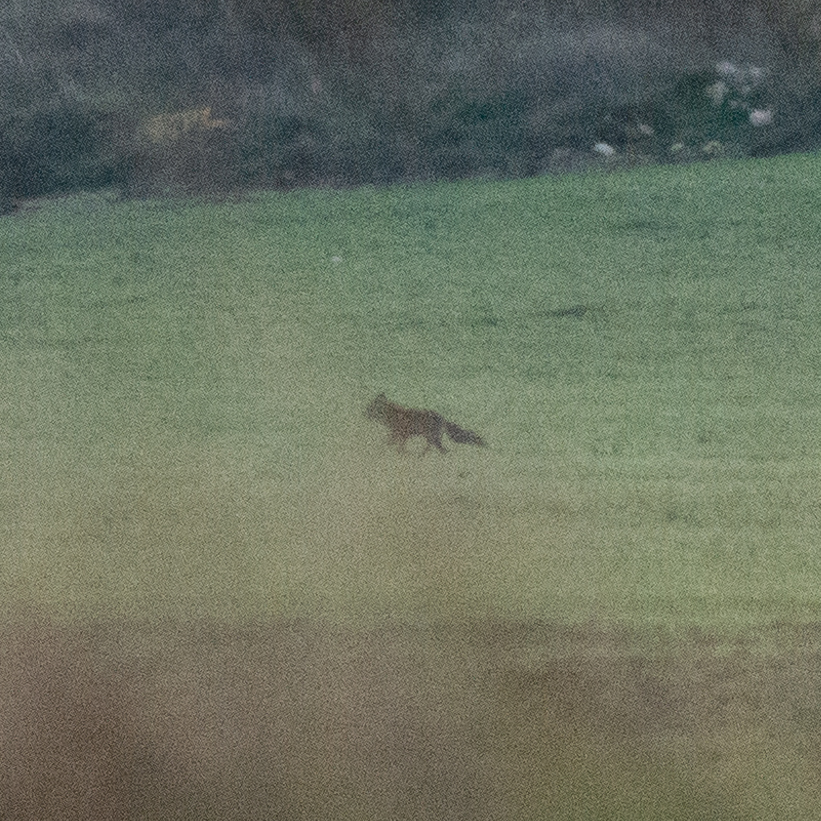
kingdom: Animalia
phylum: Chordata
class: Mammalia
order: Carnivora
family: Canidae
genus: Vulpes
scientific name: Vulpes vulpes
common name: Red fox
